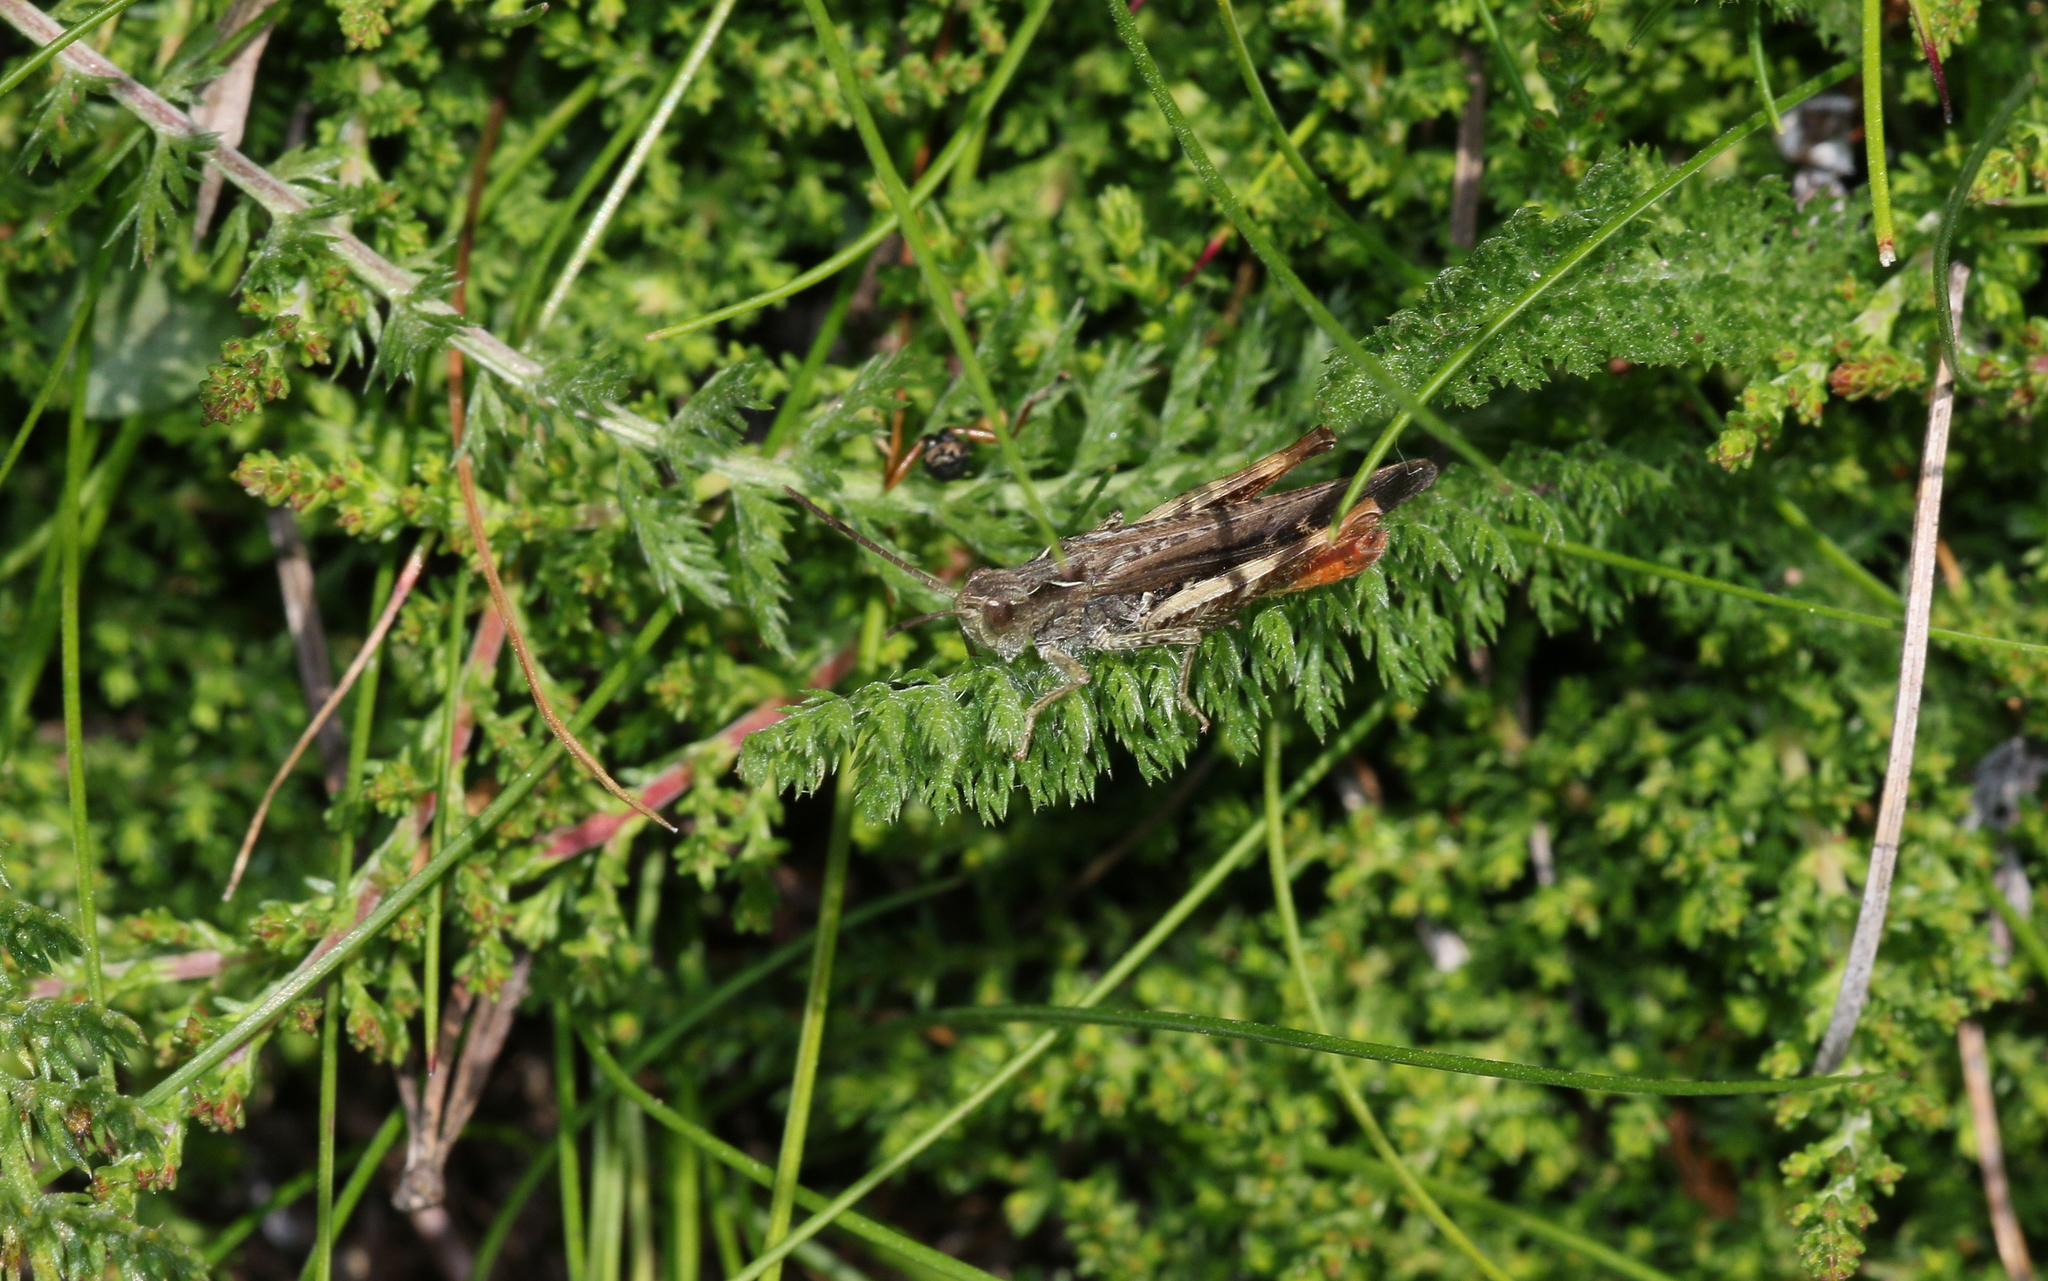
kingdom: Animalia
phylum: Arthropoda
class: Insecta
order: Orthoptera
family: Acrididae
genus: Chorthippus
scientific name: Chorthippus brunneus
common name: Field grasshopper
